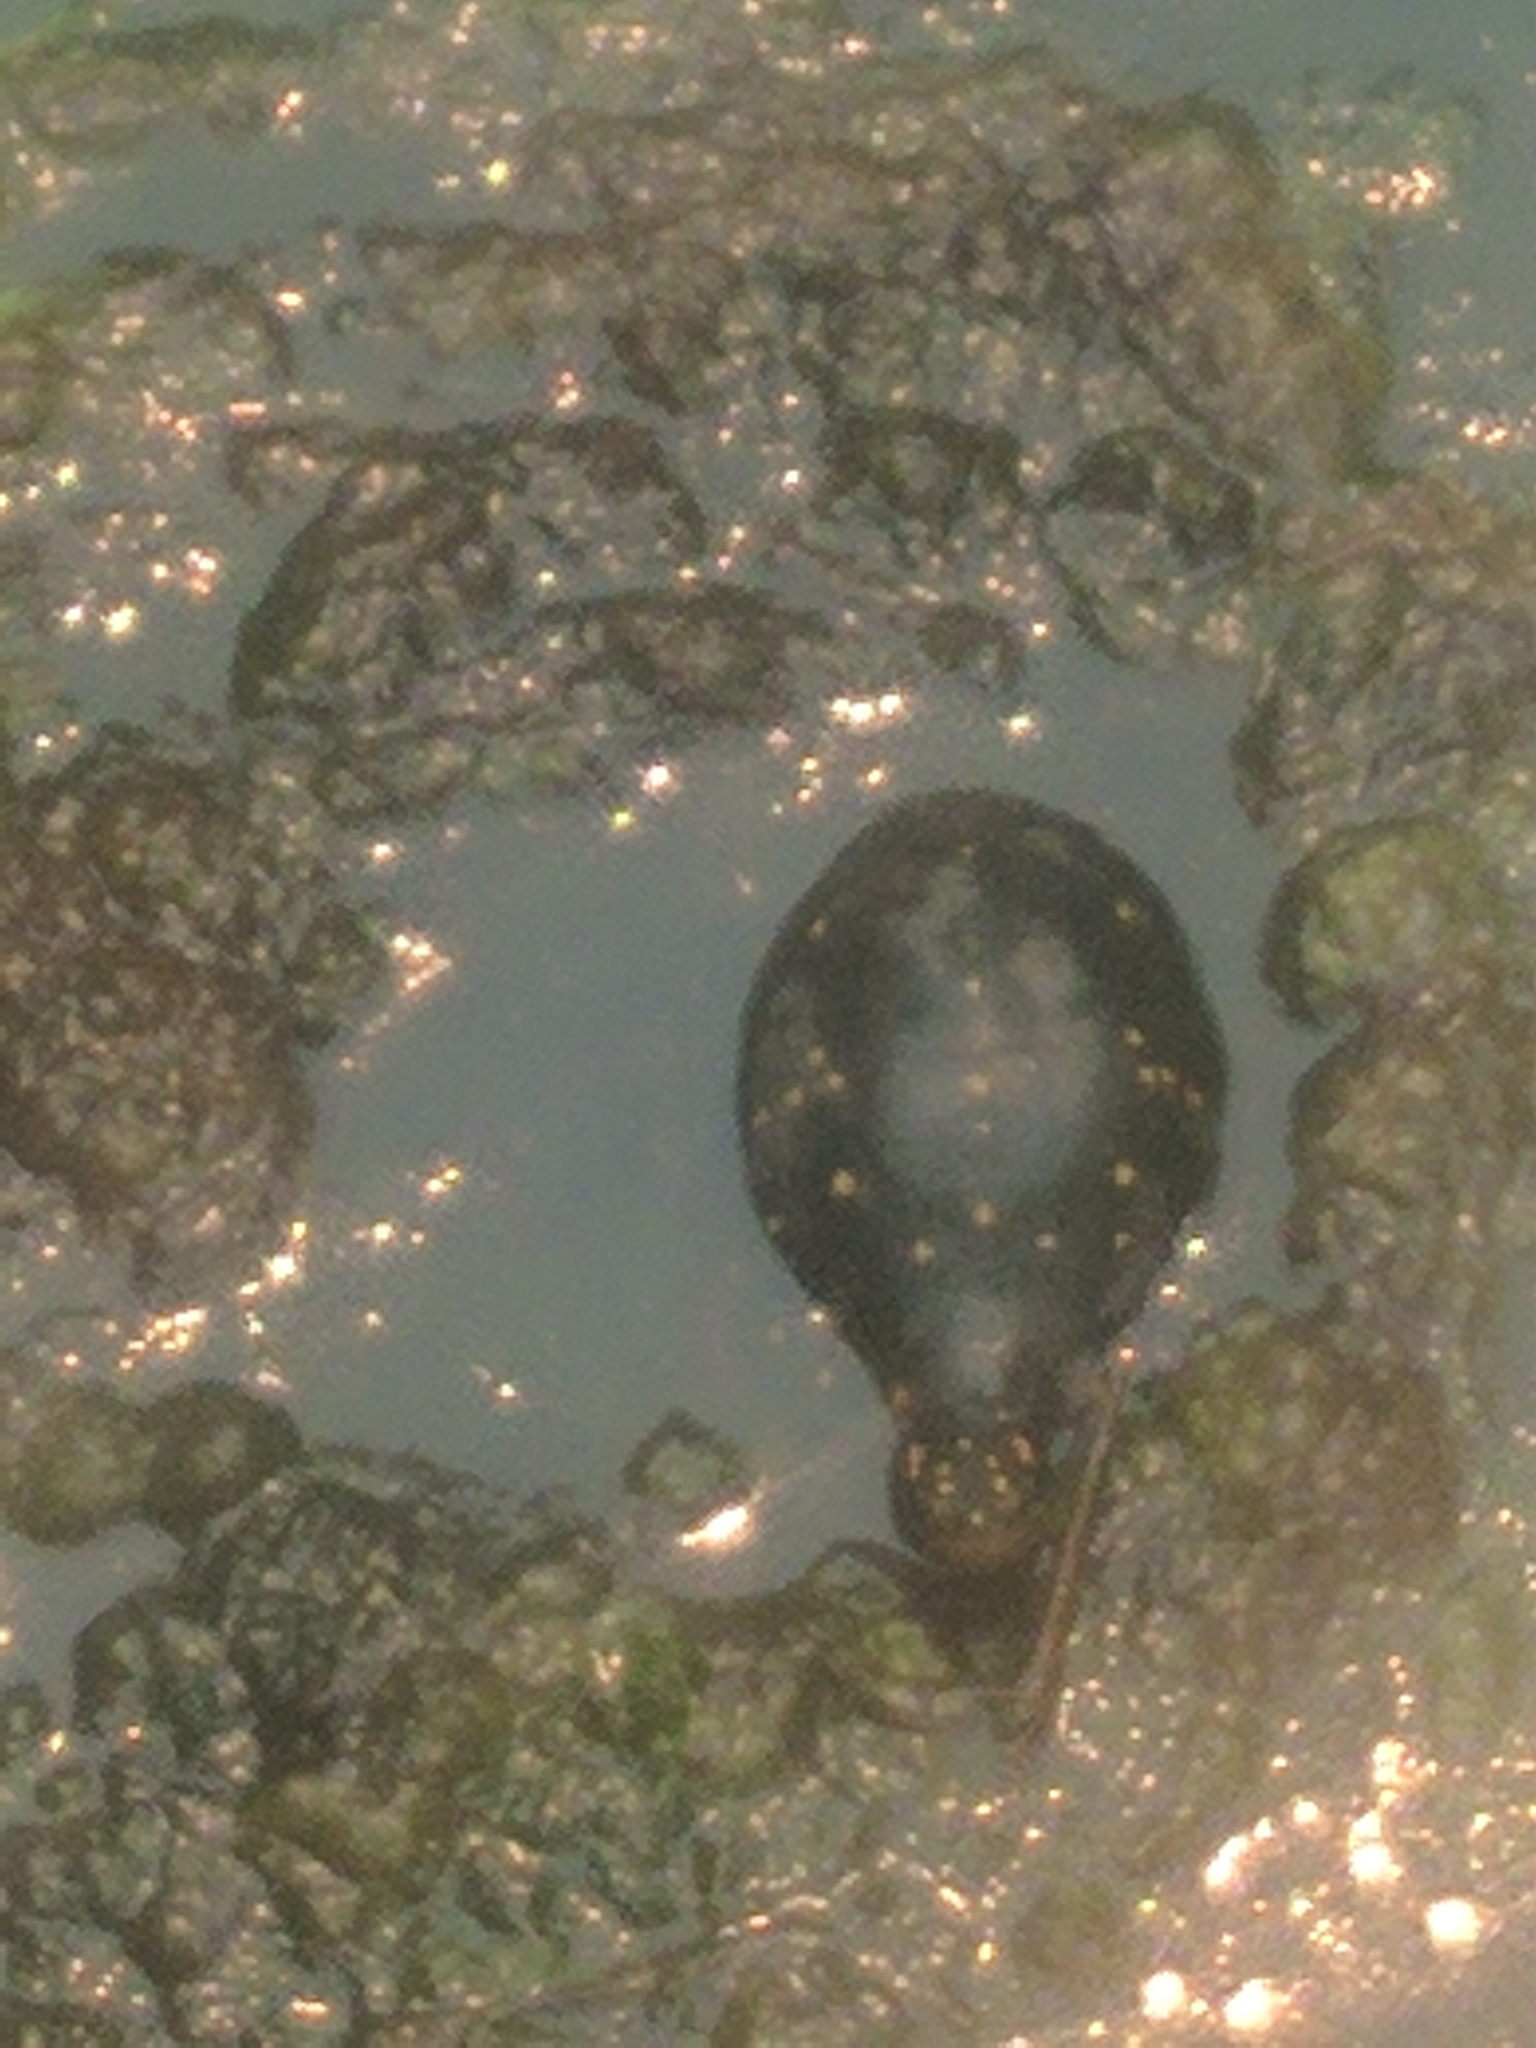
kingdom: Animalia
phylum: Chordata
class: Testudines
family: Emydidae
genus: Clemmys
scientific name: Clemmys guttata
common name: Spotted turtle
